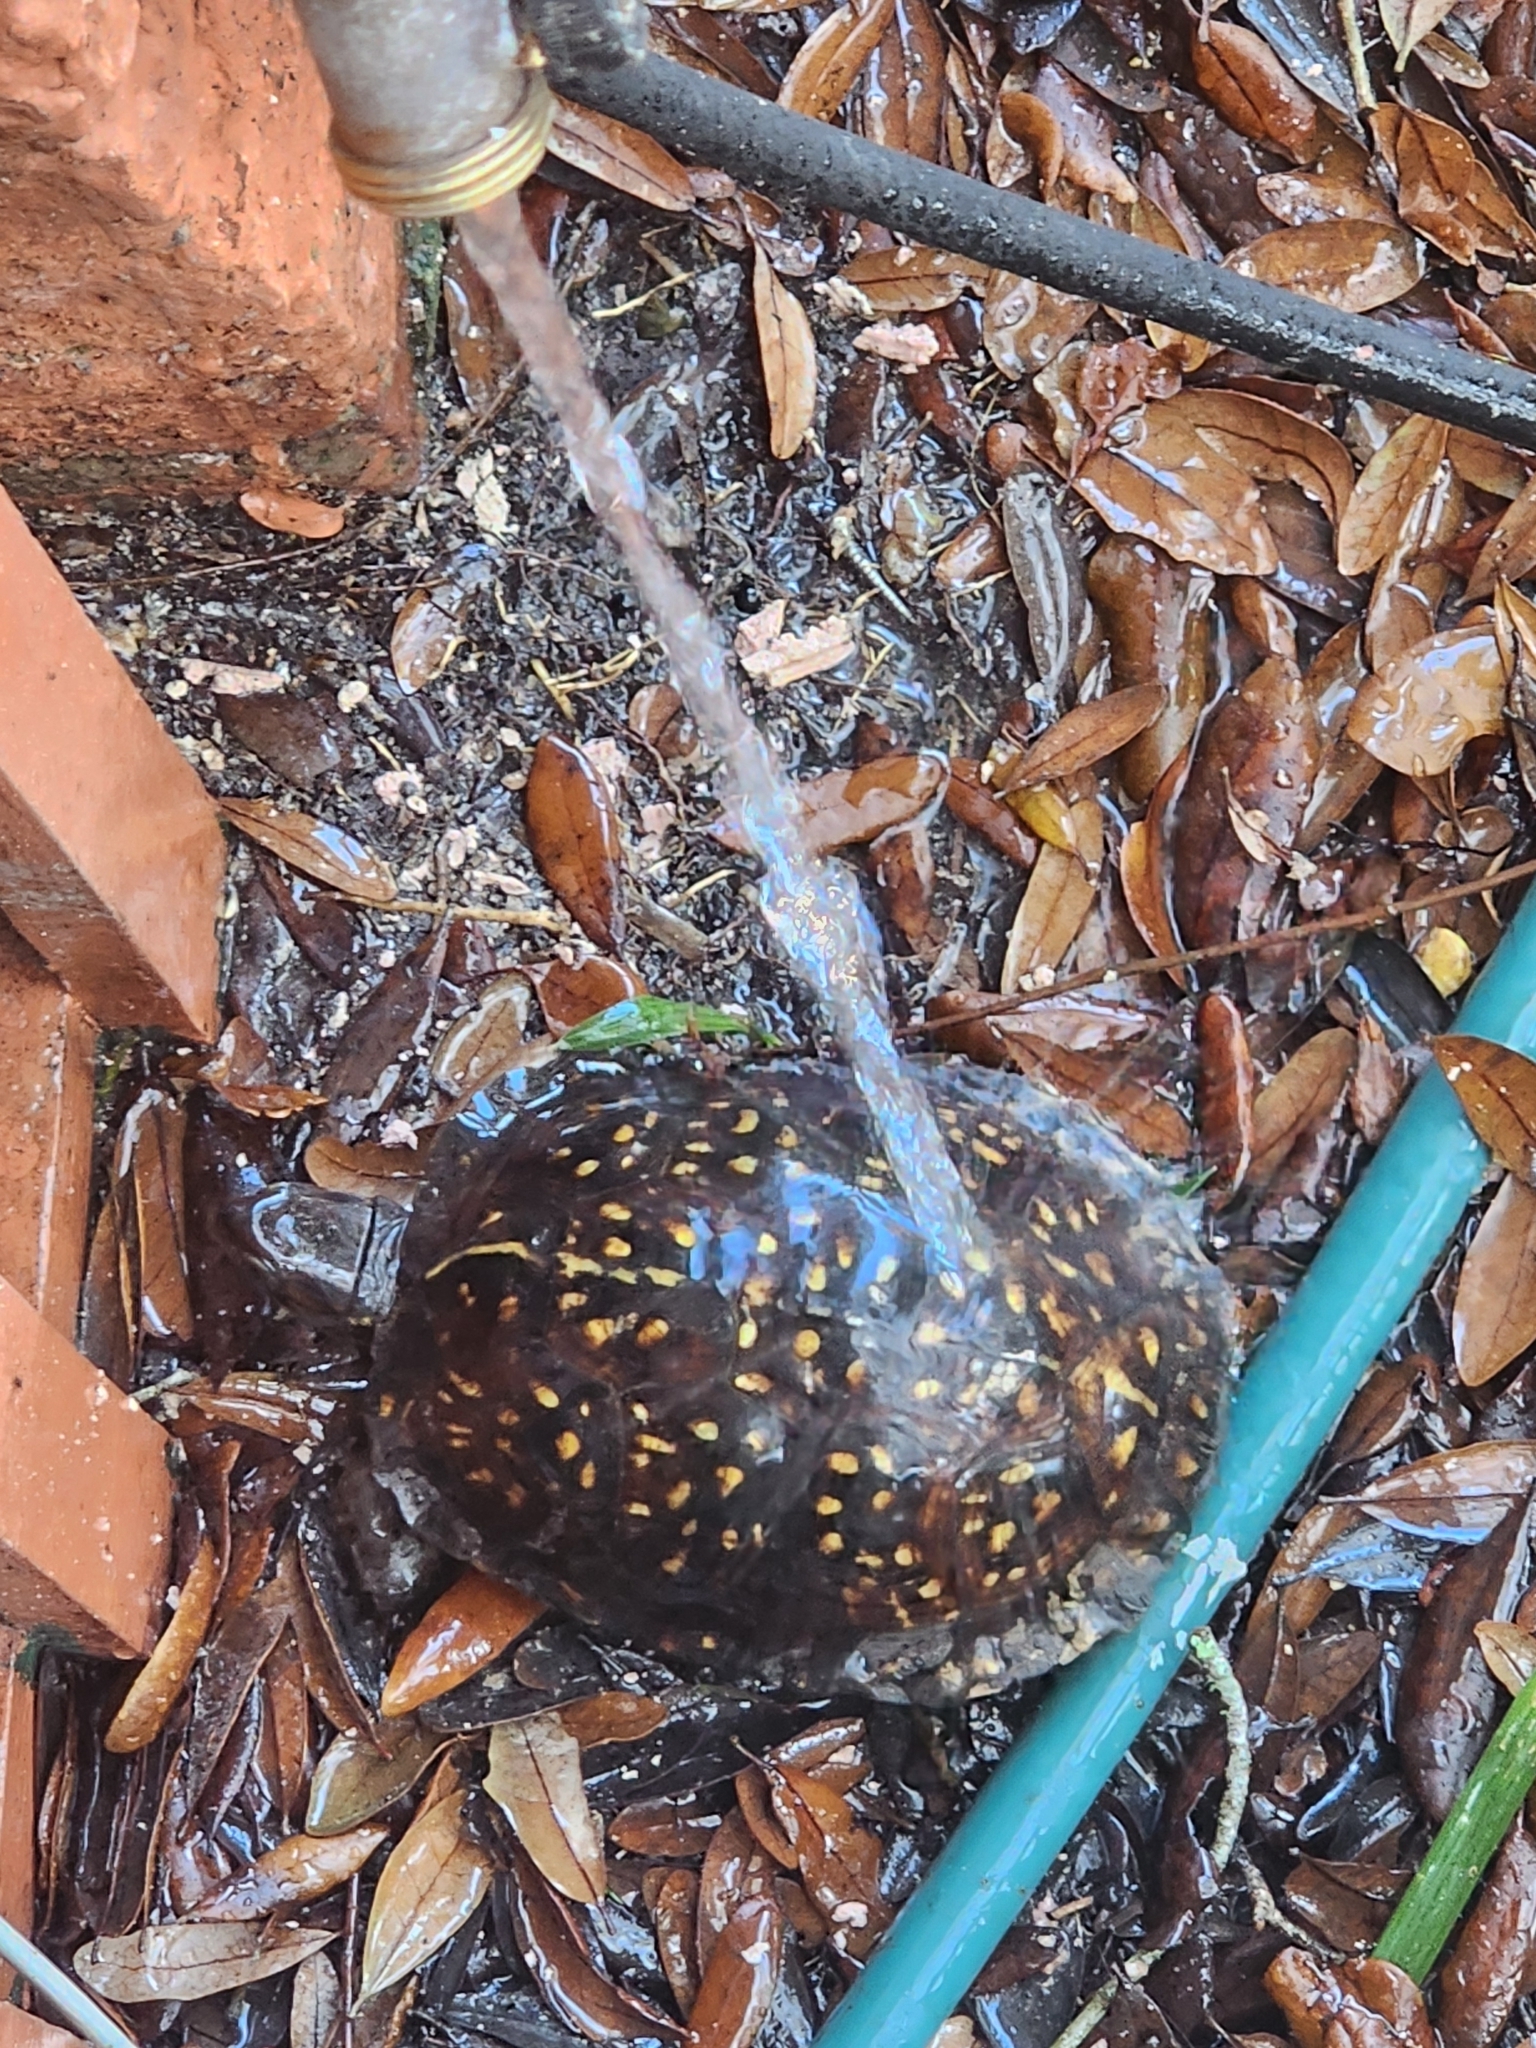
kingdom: Animalia
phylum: Chordata
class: Testudines
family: Emydidae
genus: Terrapene
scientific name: Terrapene carolina
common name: Common box turtle
